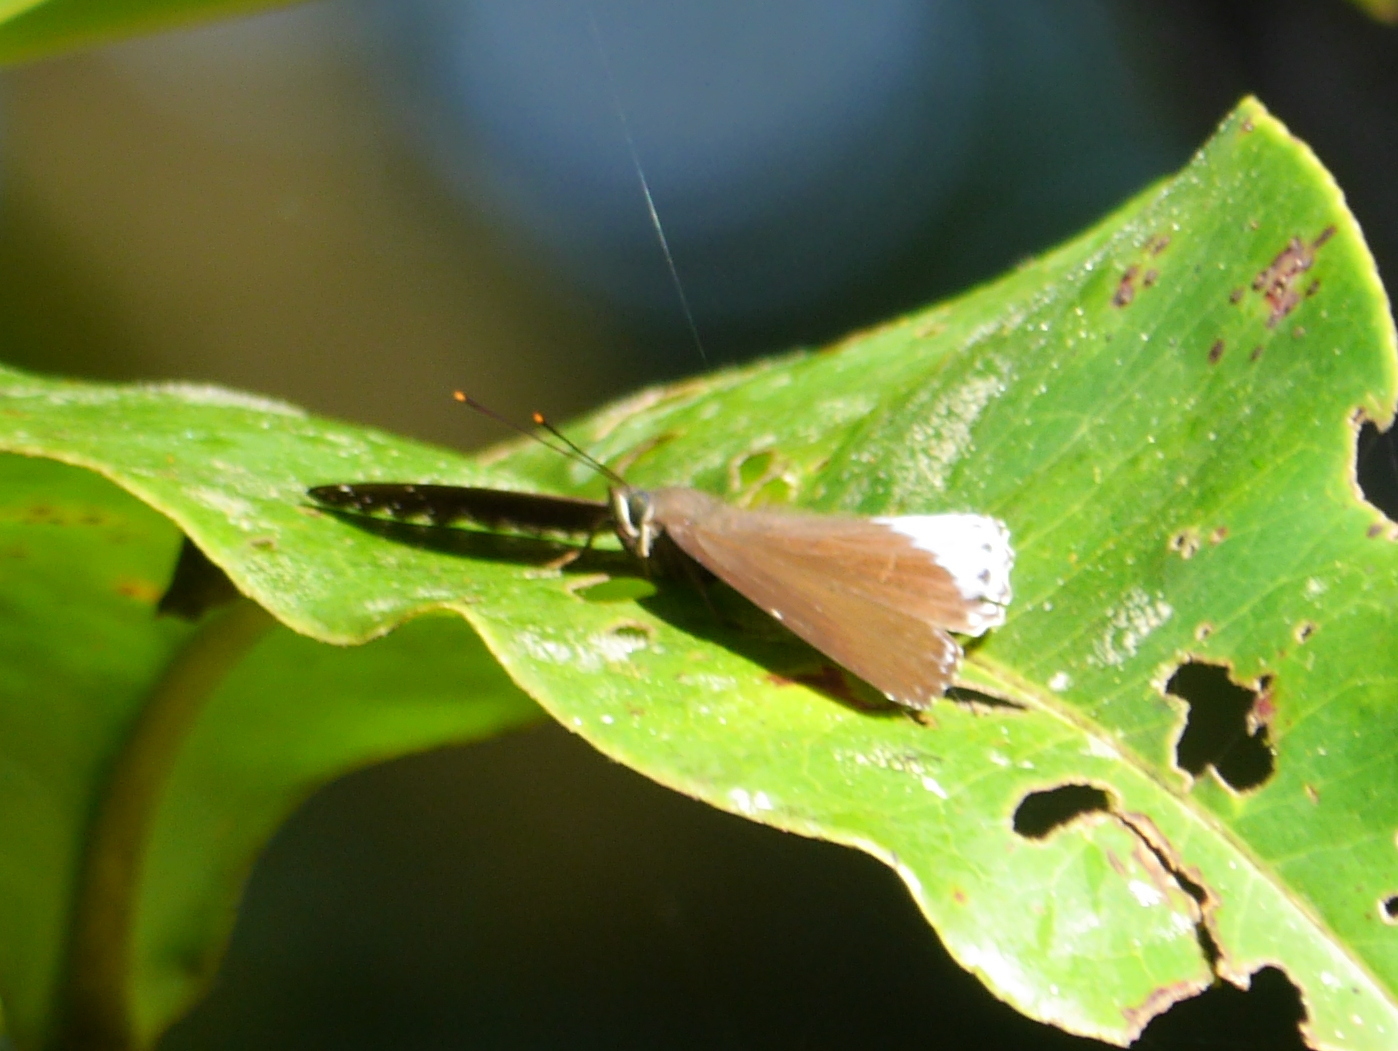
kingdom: Animalia
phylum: Arthropoda
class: Insecta
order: Lepidoptera
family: Nymphalidae
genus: Stibochiona
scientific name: Stibochiona coresia
